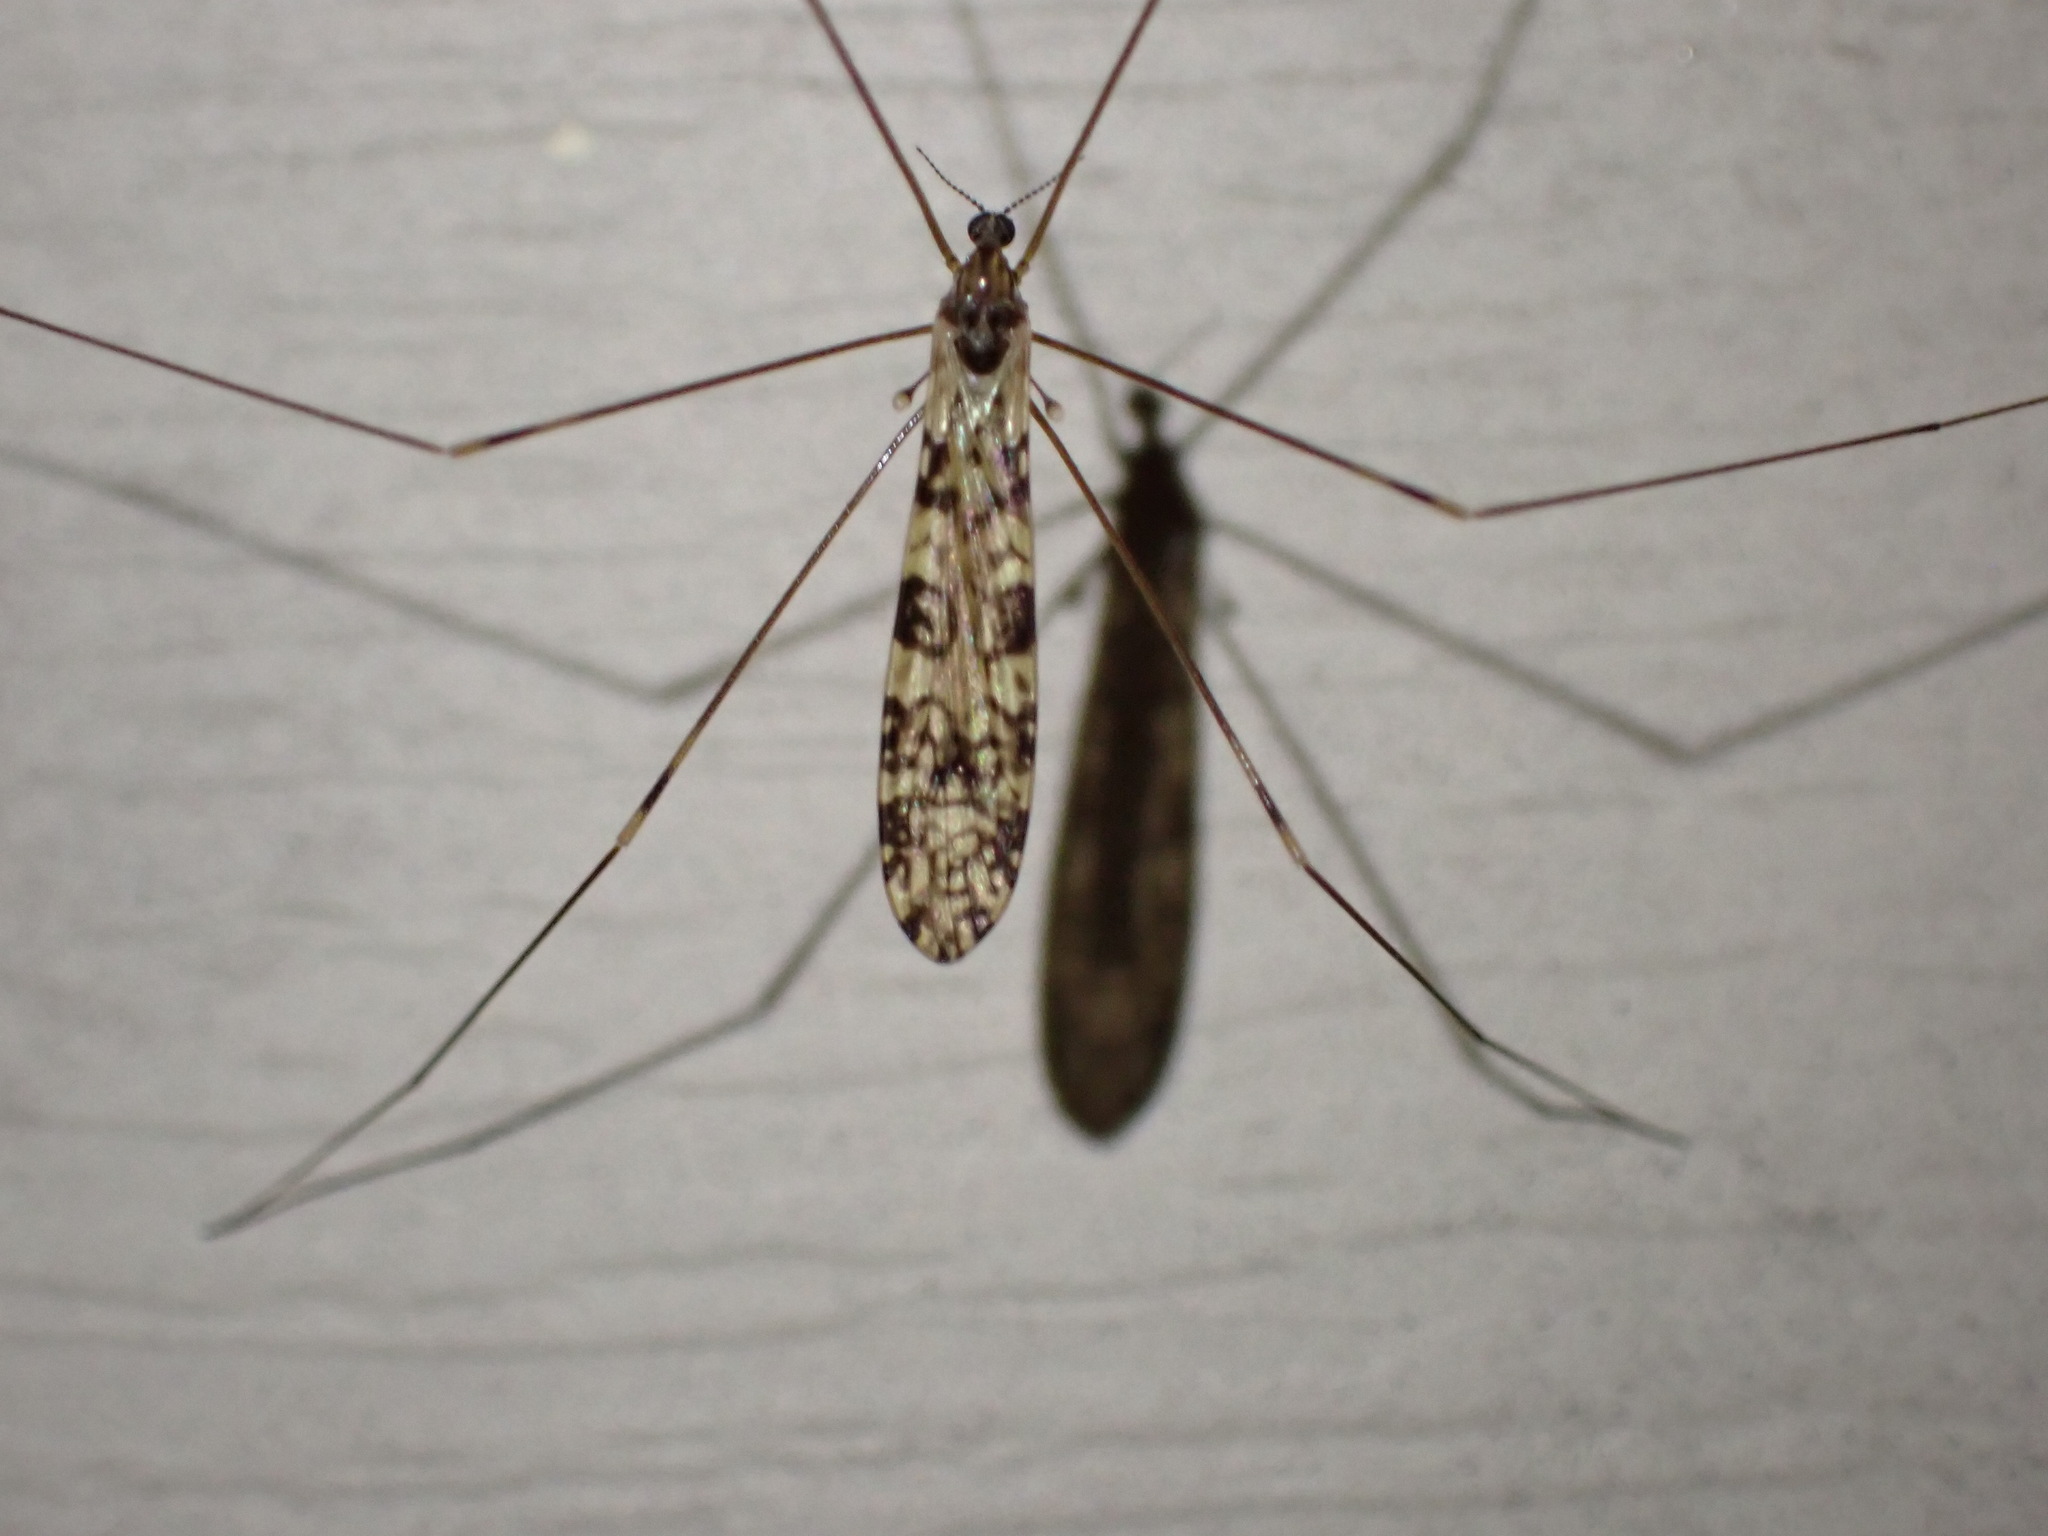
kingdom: Animalia
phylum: Arthropoda
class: Insecta
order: Diptera
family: Limoniidae
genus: Discobola
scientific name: Discobola annulata
